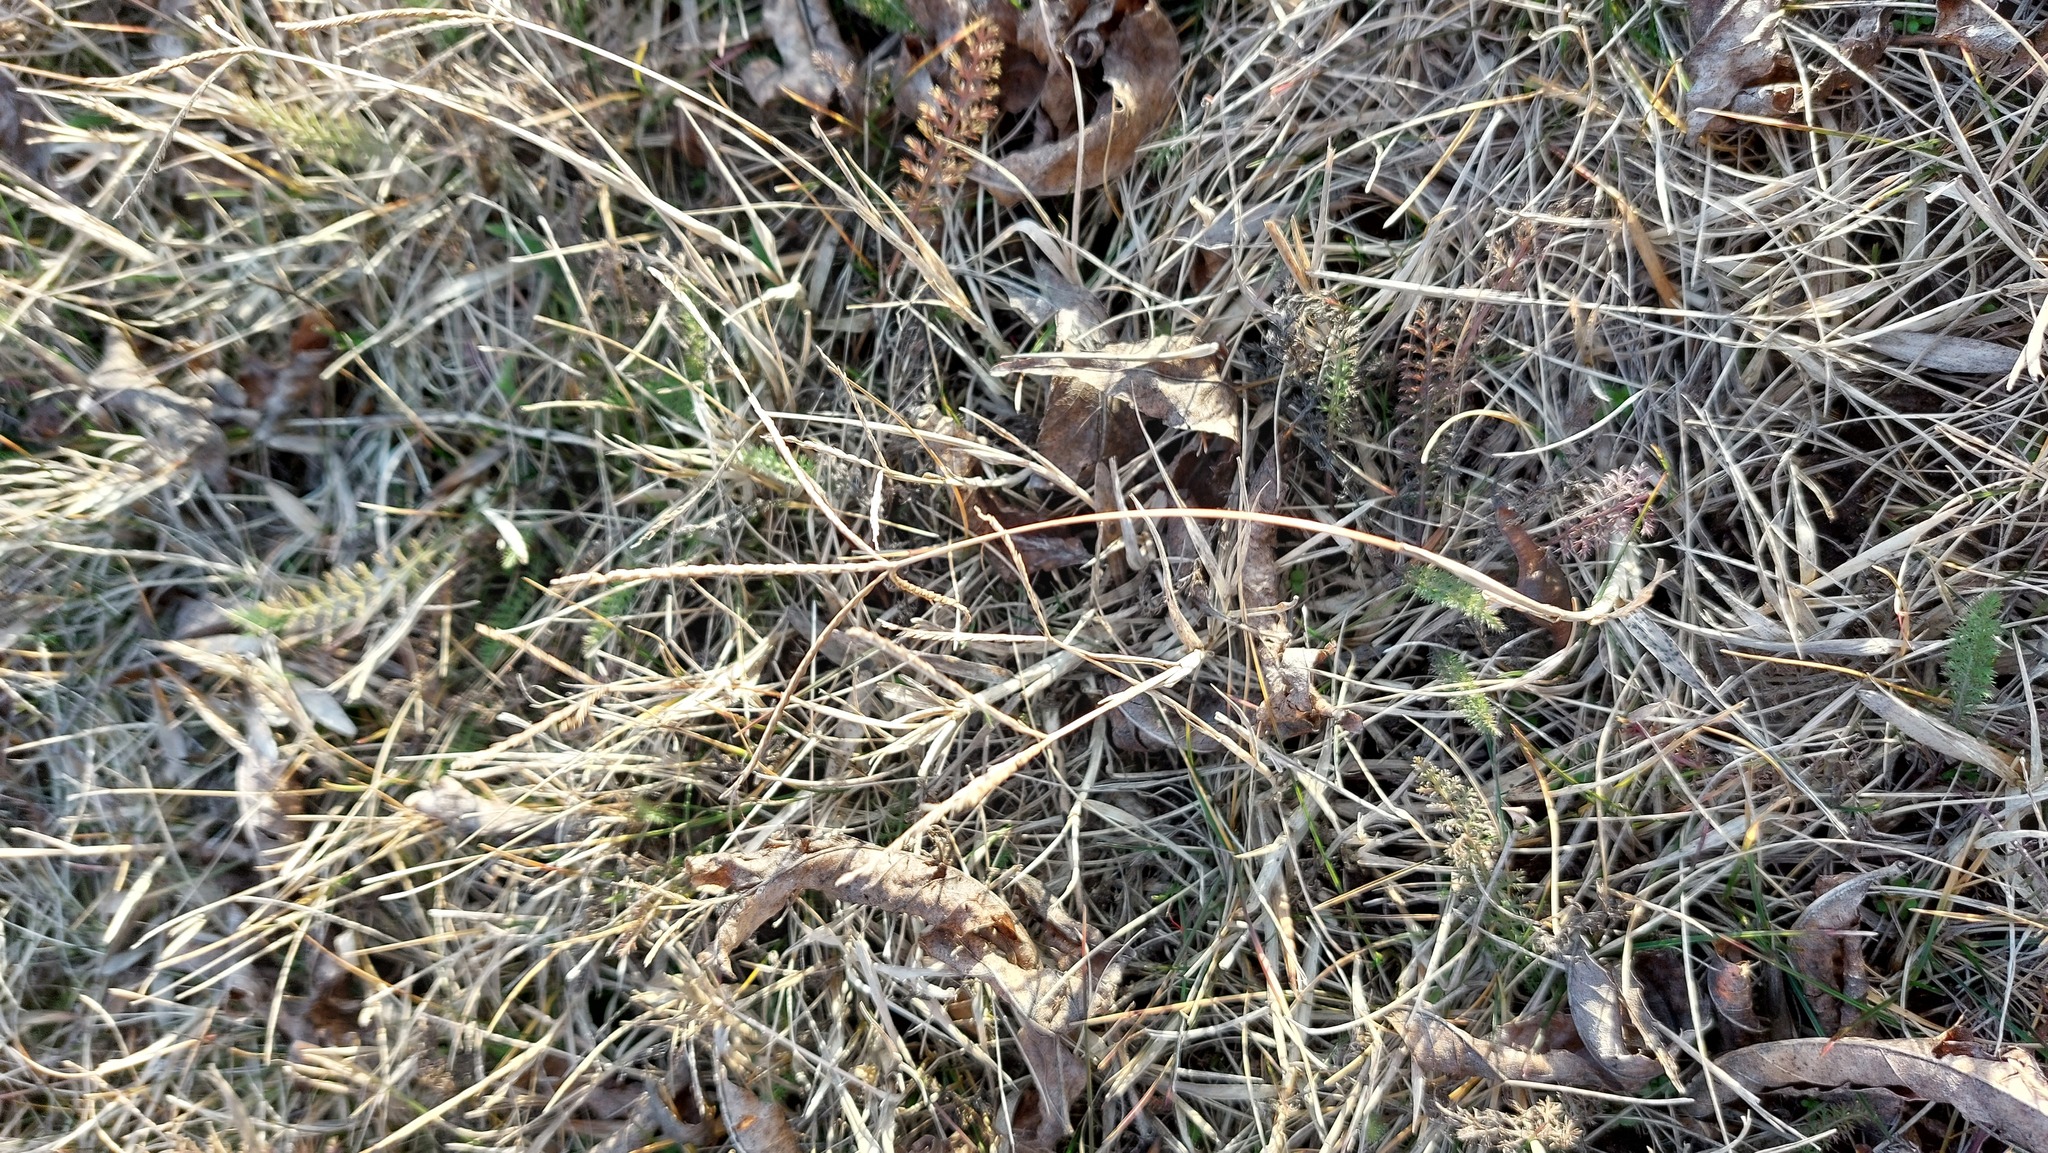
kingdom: Plantae
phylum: Tracheophyta
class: Liliopsida
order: Poales
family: Poaceae
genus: Cynodon
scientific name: Cynodon dactylon
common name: Bermuda grass
